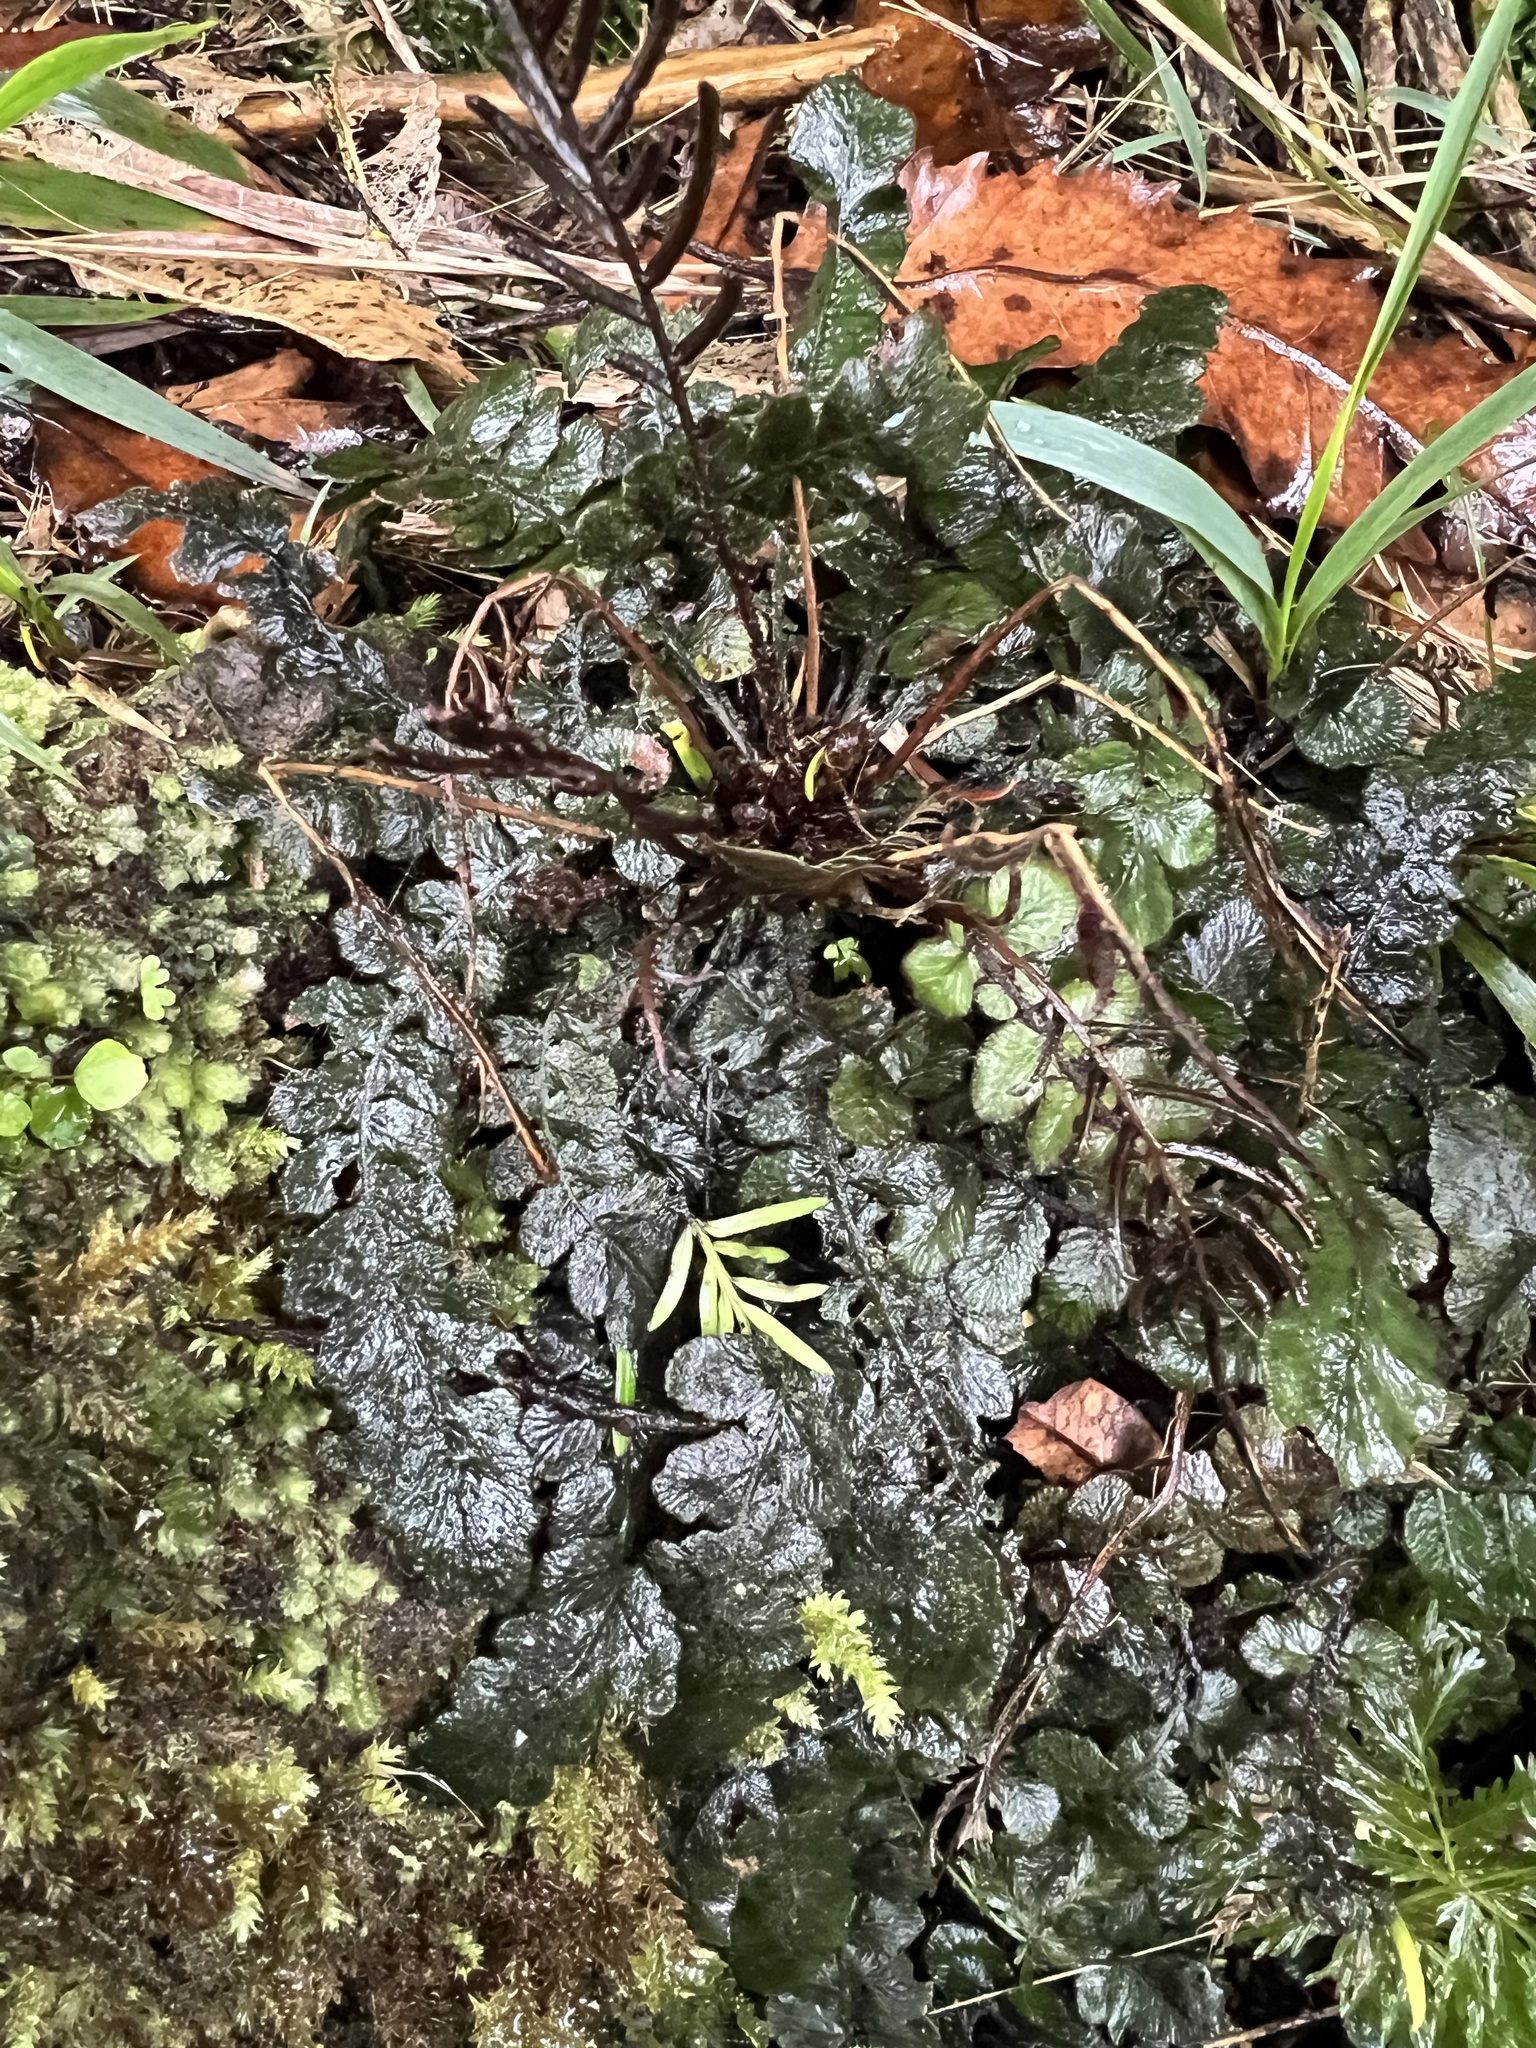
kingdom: Plantae
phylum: Tracheophyta
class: Polypodiopsida
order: Polypodiales
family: Blechnaceae
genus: Cranfillia
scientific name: Cranfillia nigra
